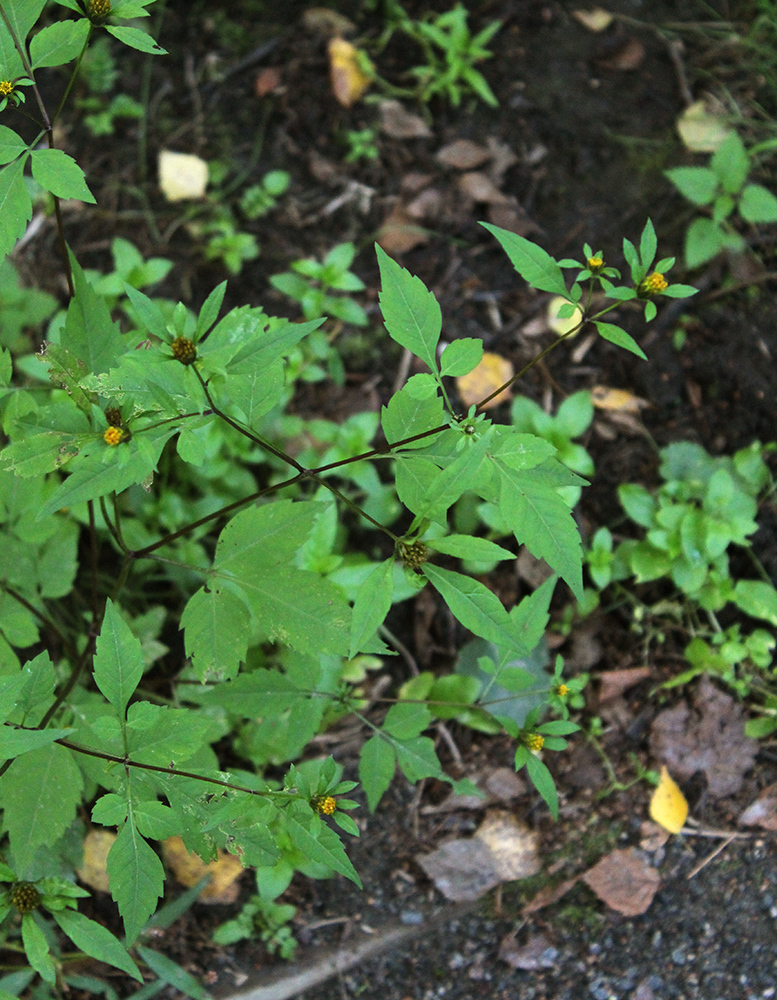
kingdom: Plantae
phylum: Tracheophyta
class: Magnoliopsida
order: Asterales
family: Asteraceae
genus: Bidens
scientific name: Bidens frondosa
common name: Beggarticks
